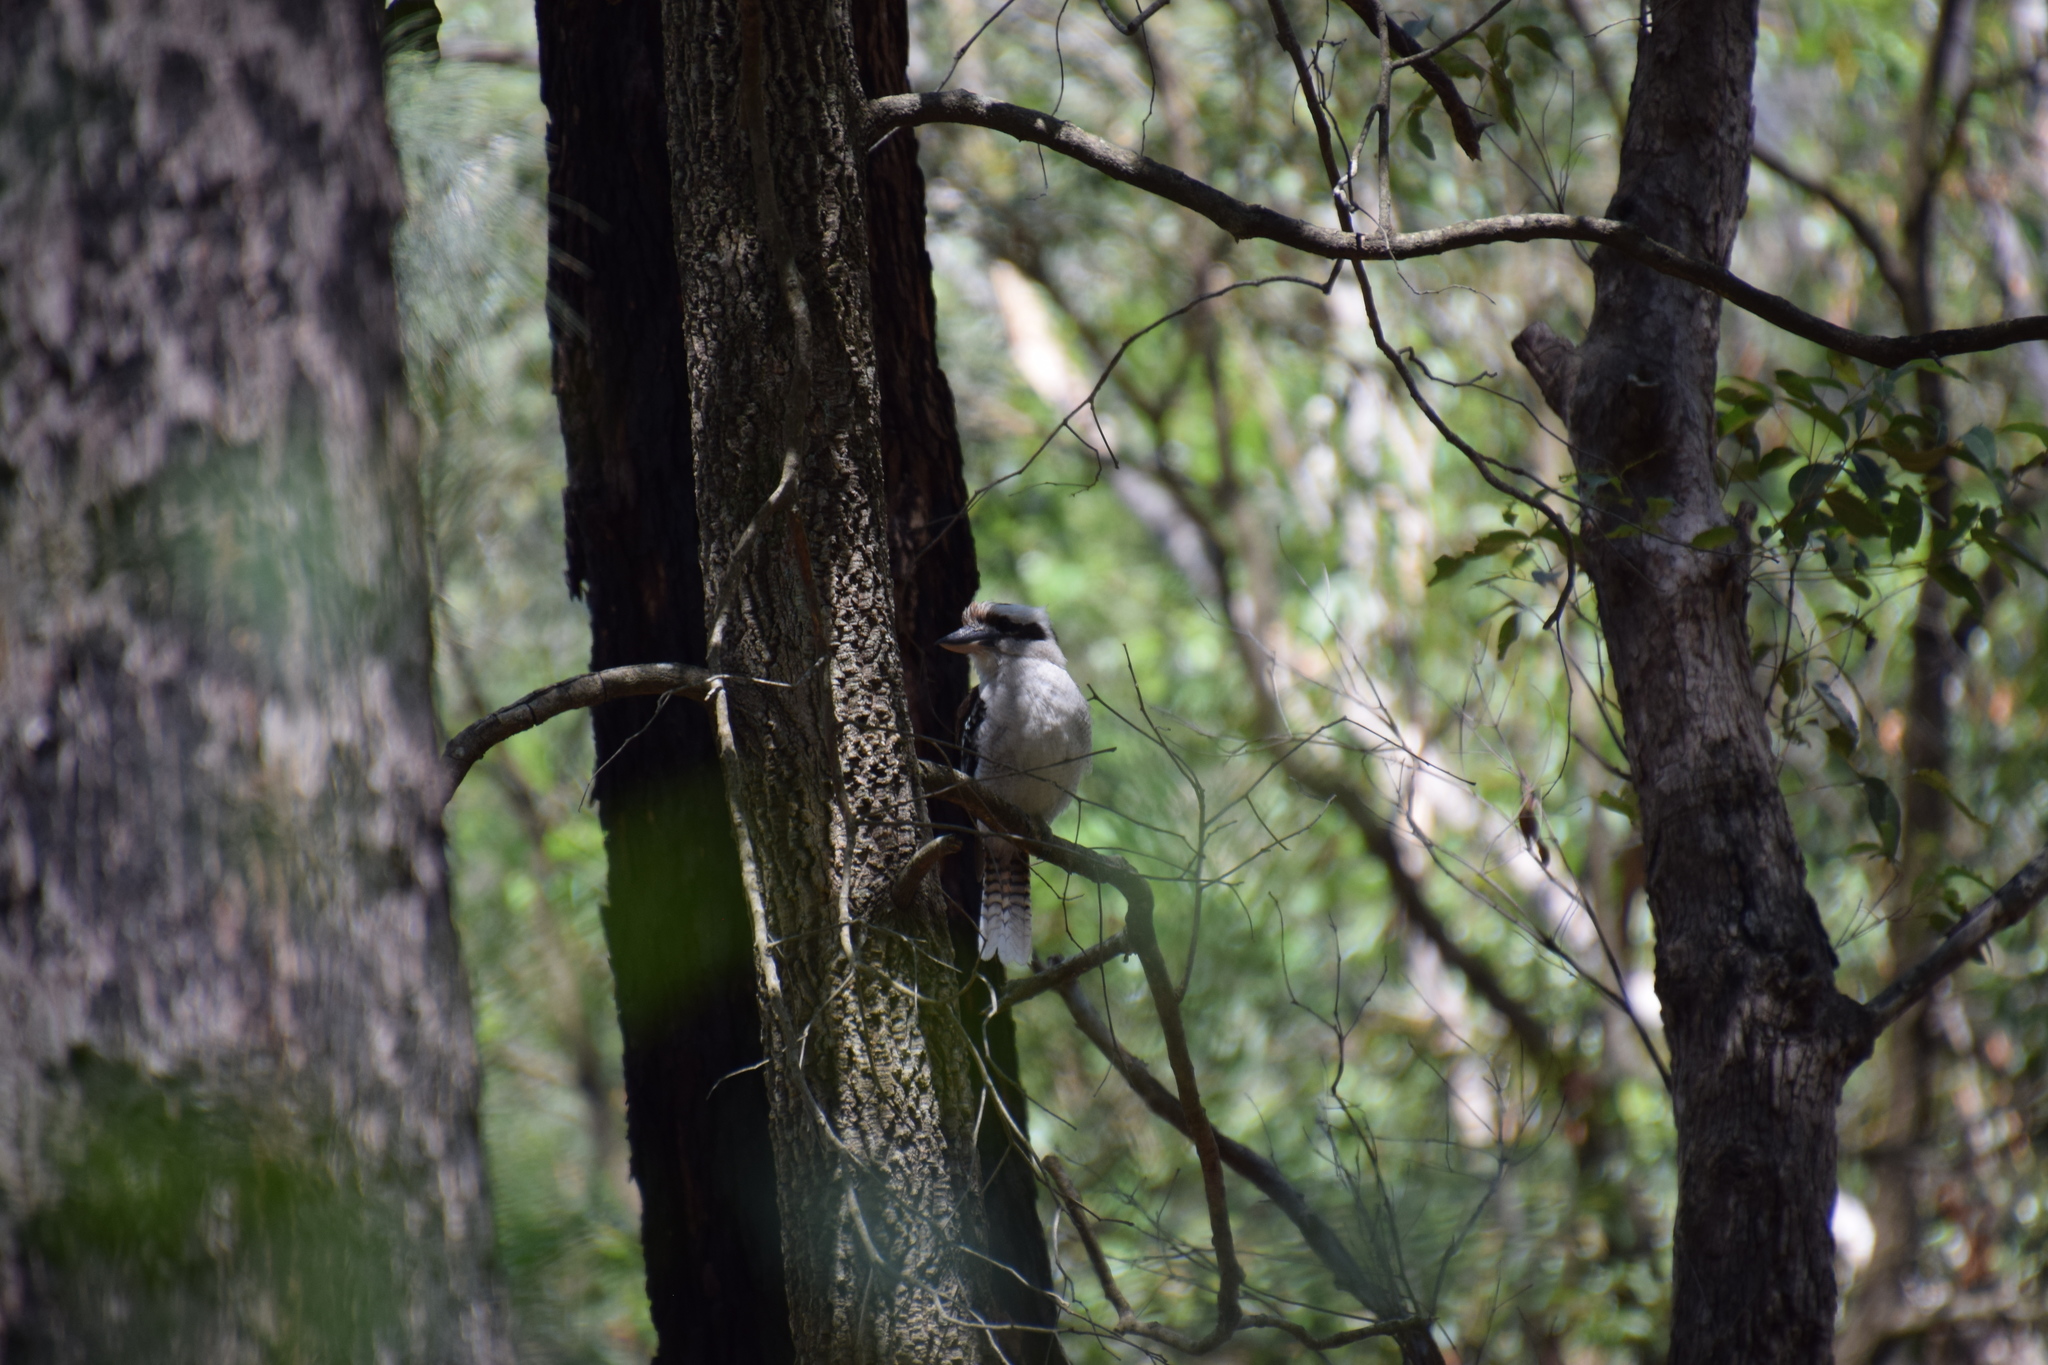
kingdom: Animalia
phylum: Chordata
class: Aves
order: Coraciiformes
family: Alcedinidae
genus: Dacelo
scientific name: Dacelo novaeguineae
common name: Laughing kookaburra
